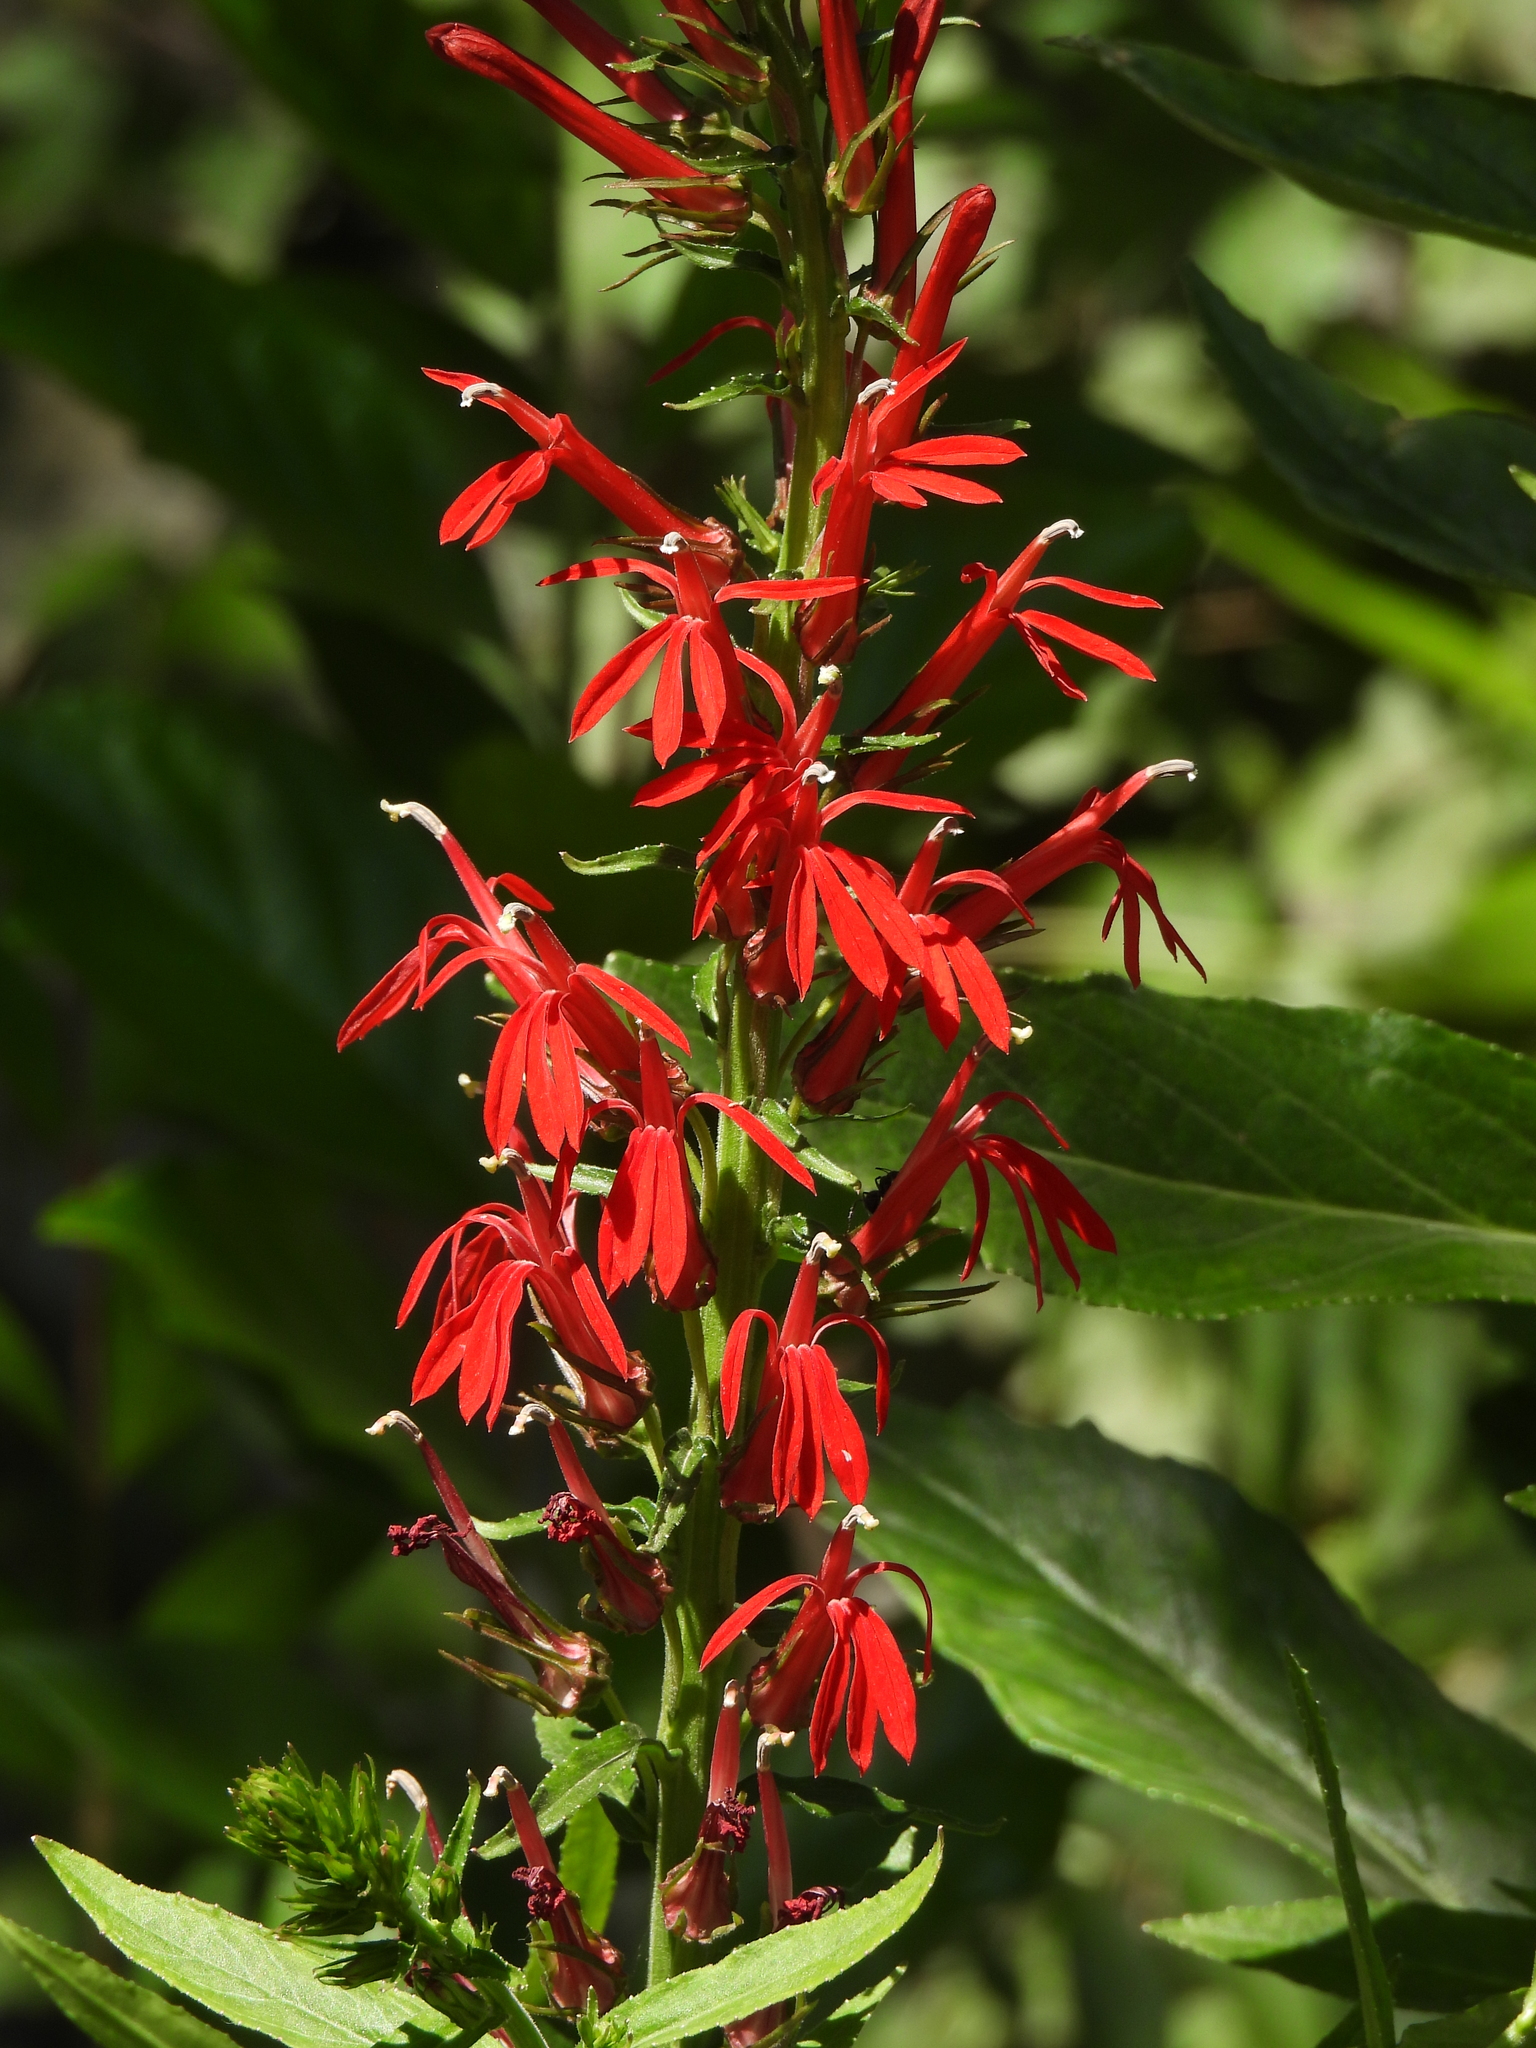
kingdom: Plantae
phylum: Tracheophyta
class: Magnoliopsida
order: Asterales
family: Campanulaceae
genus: Lobelia
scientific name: Lobelia cardinalis
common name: Cardinal flower
